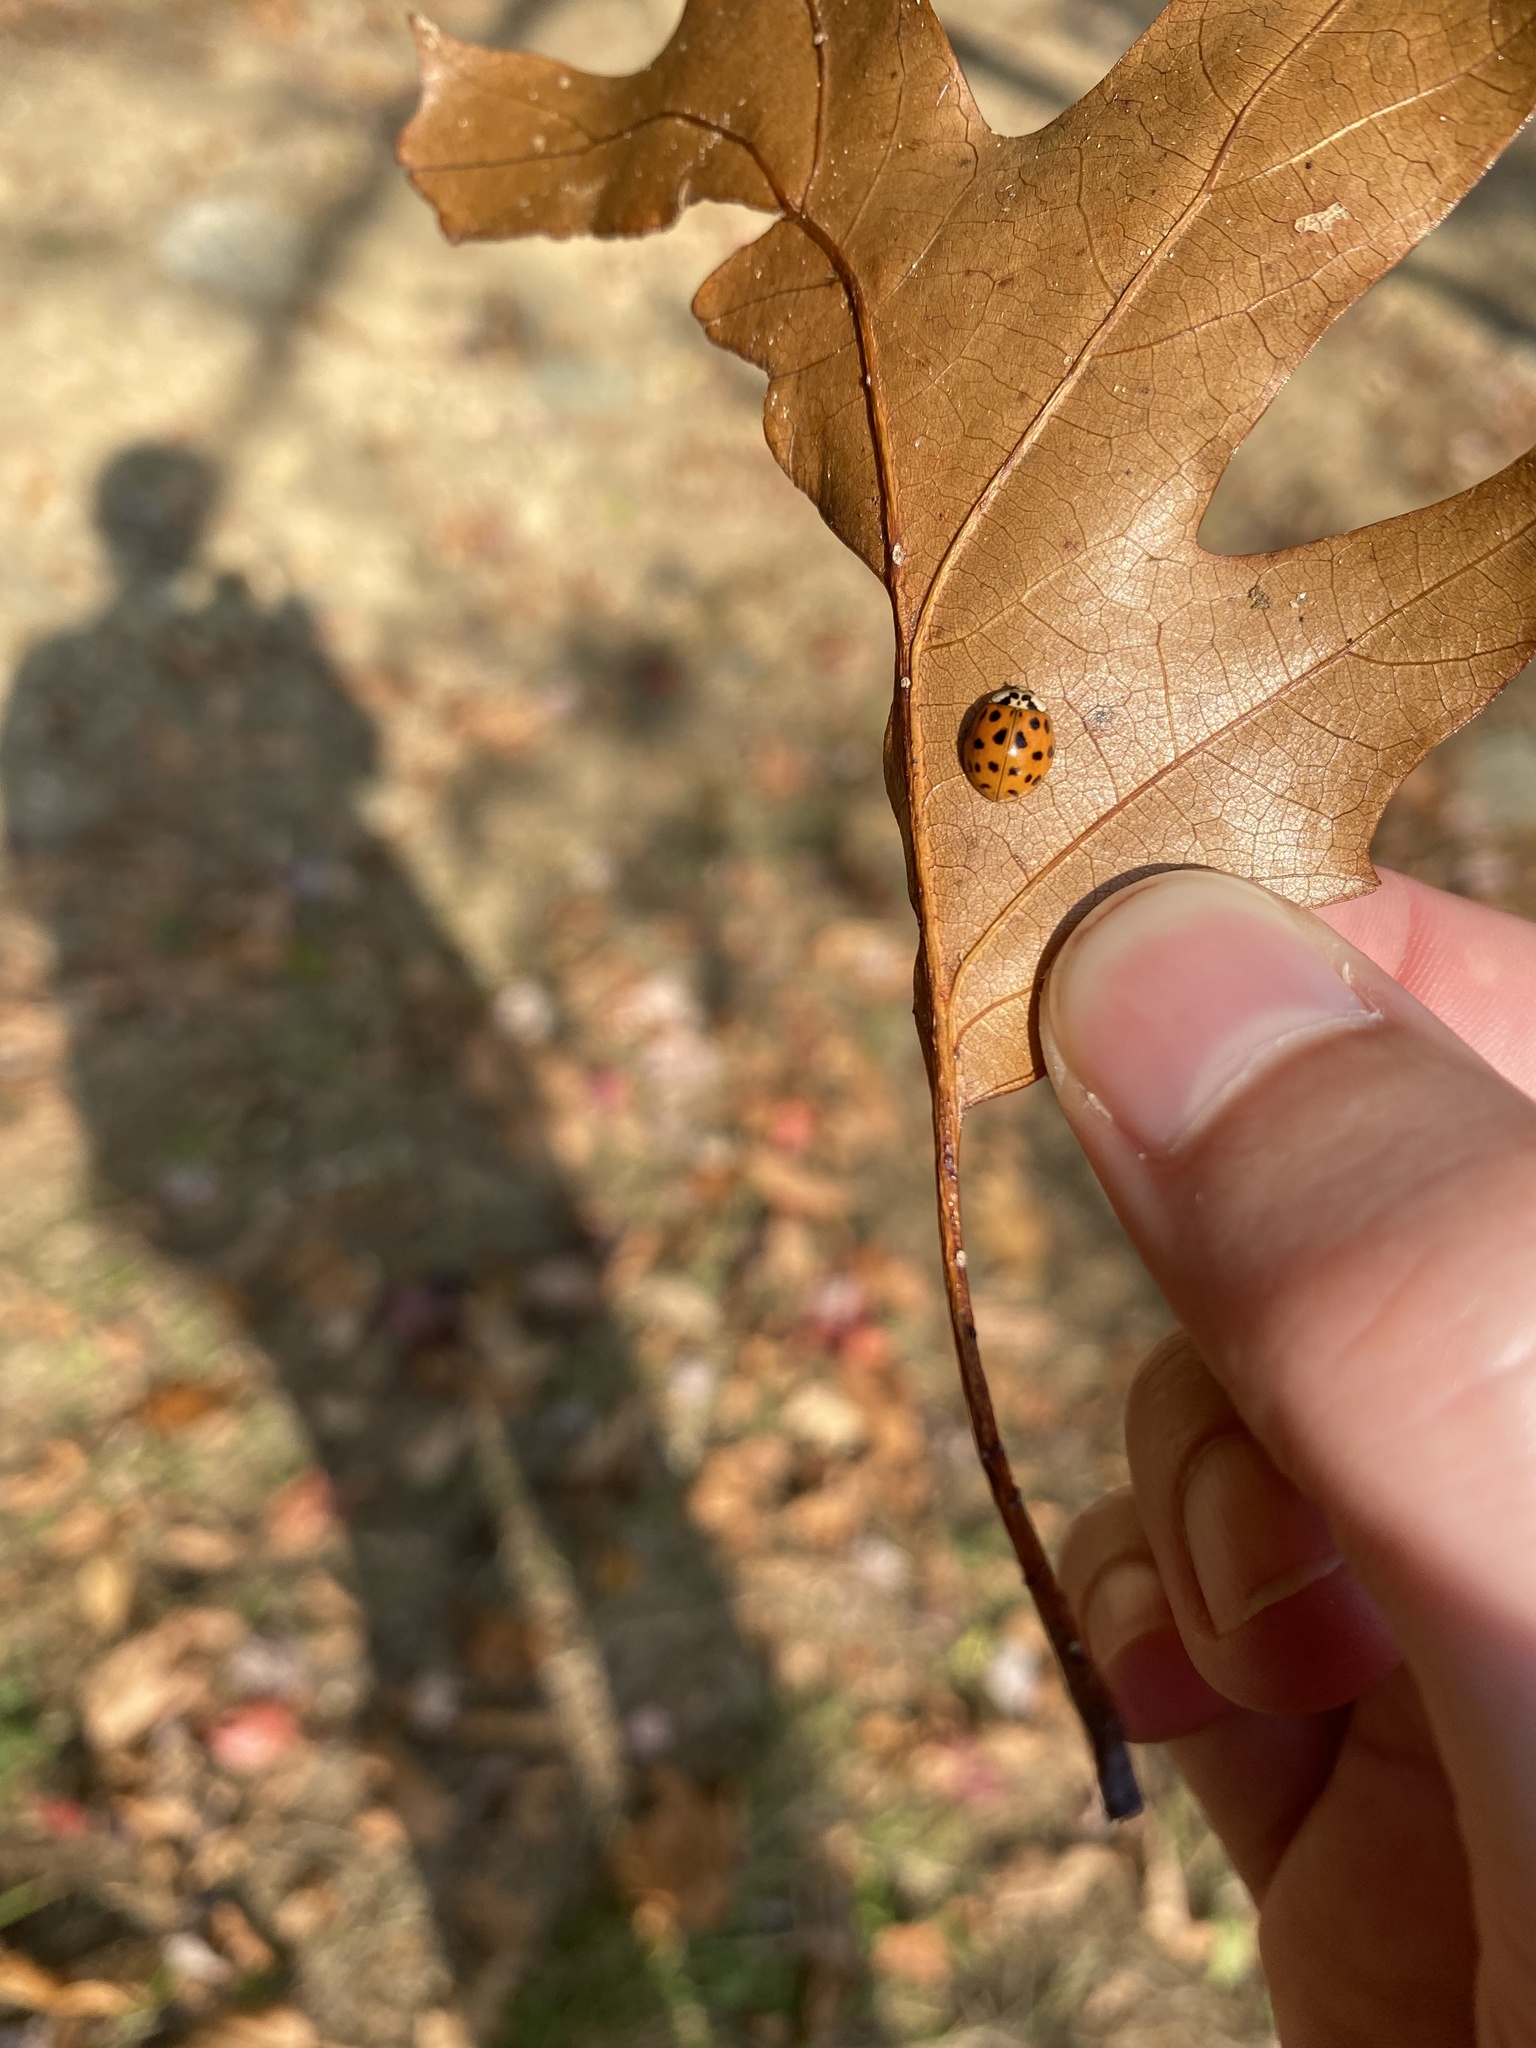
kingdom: Animalia
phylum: Arthropoda
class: Insecta
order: Coleoptera
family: Coccinellidae
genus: Harmonia
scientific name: Harmonia axyridis
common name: Harlequin ladybird
